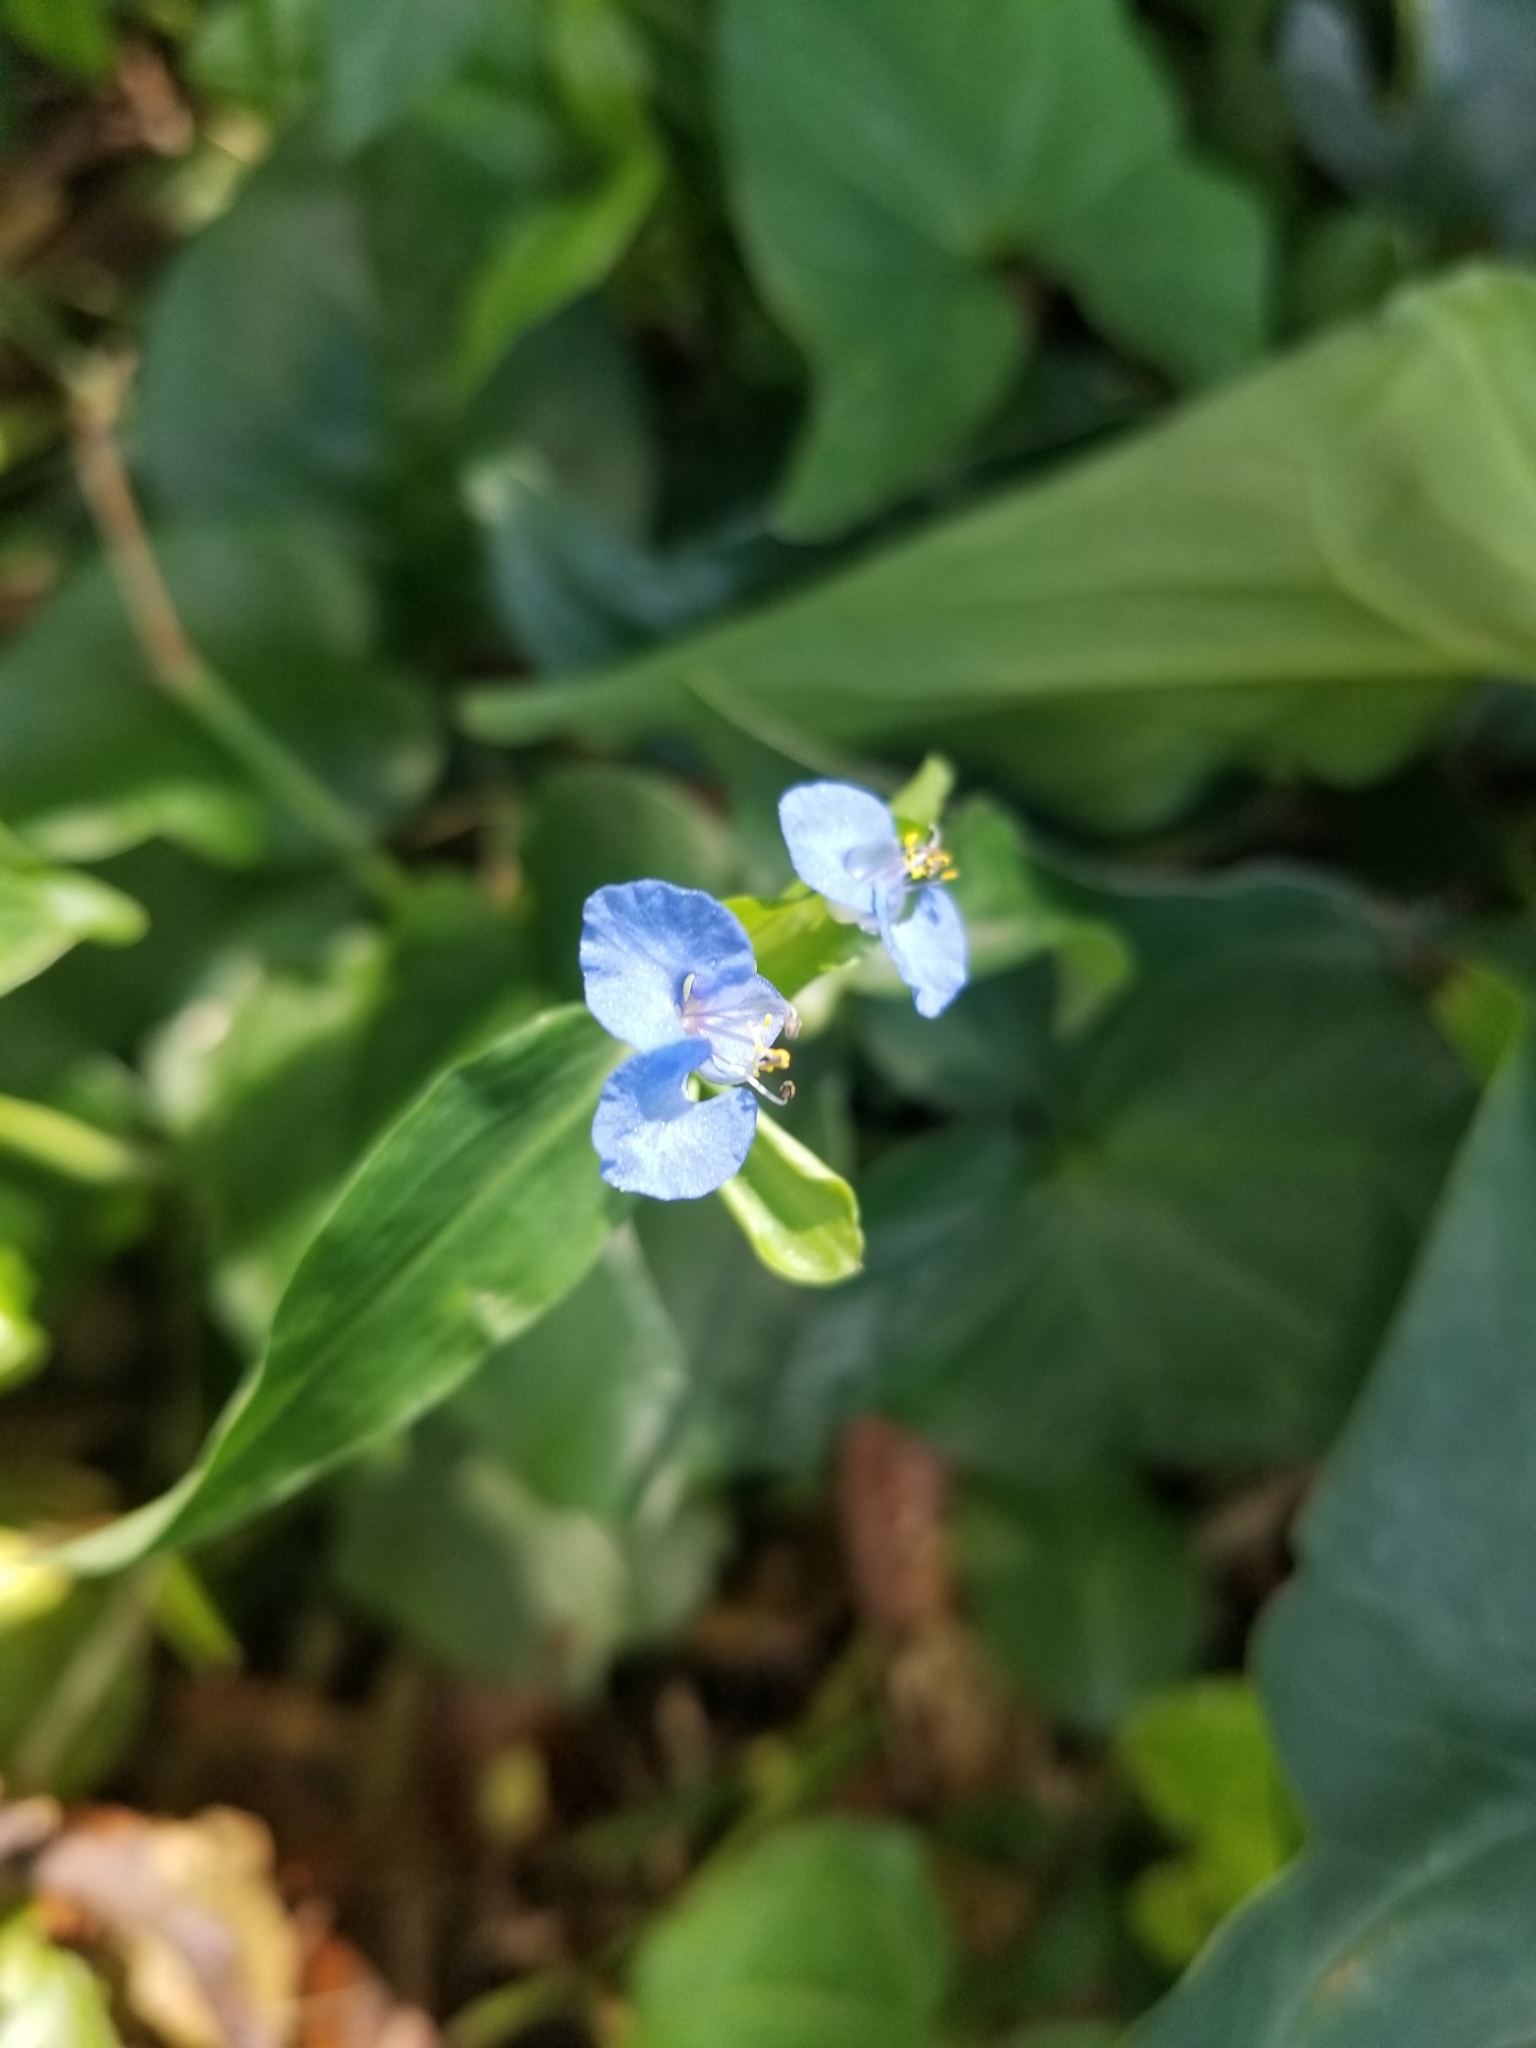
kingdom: Plantae
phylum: Tracheophyta
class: Liliopsida
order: Commelinales
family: Commelinaceae
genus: Commelina
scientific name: Commelina diffusa
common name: Climbing dayflower
